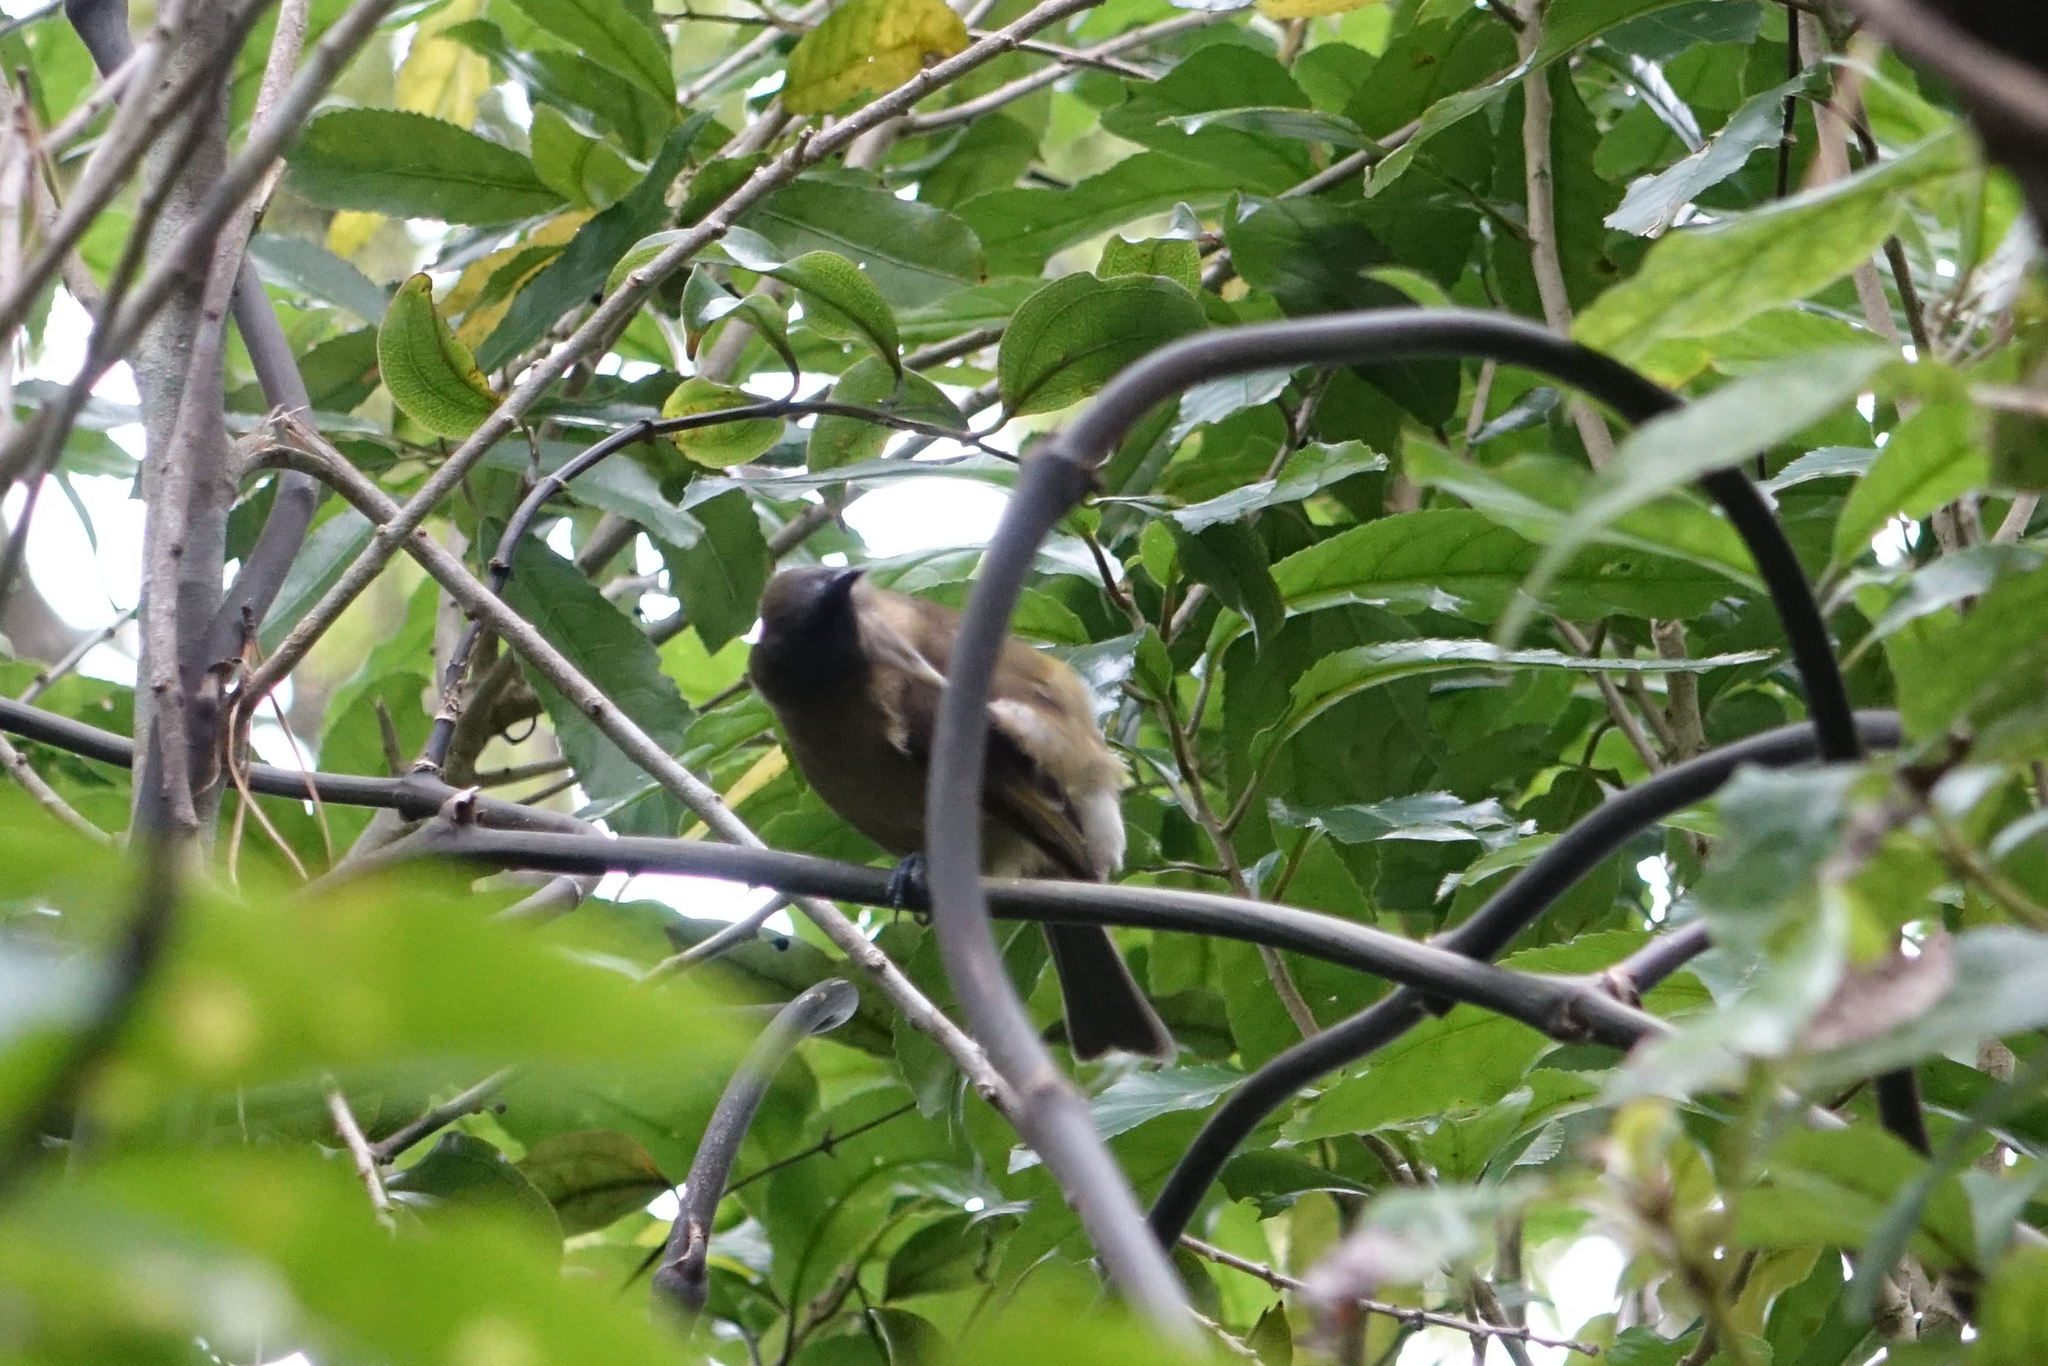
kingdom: Animalia
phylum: Chordata
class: Aves
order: Passeriformes
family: Meliphagidae
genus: Anthornis
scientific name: Anthornis melanura
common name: New zealand bellbird
